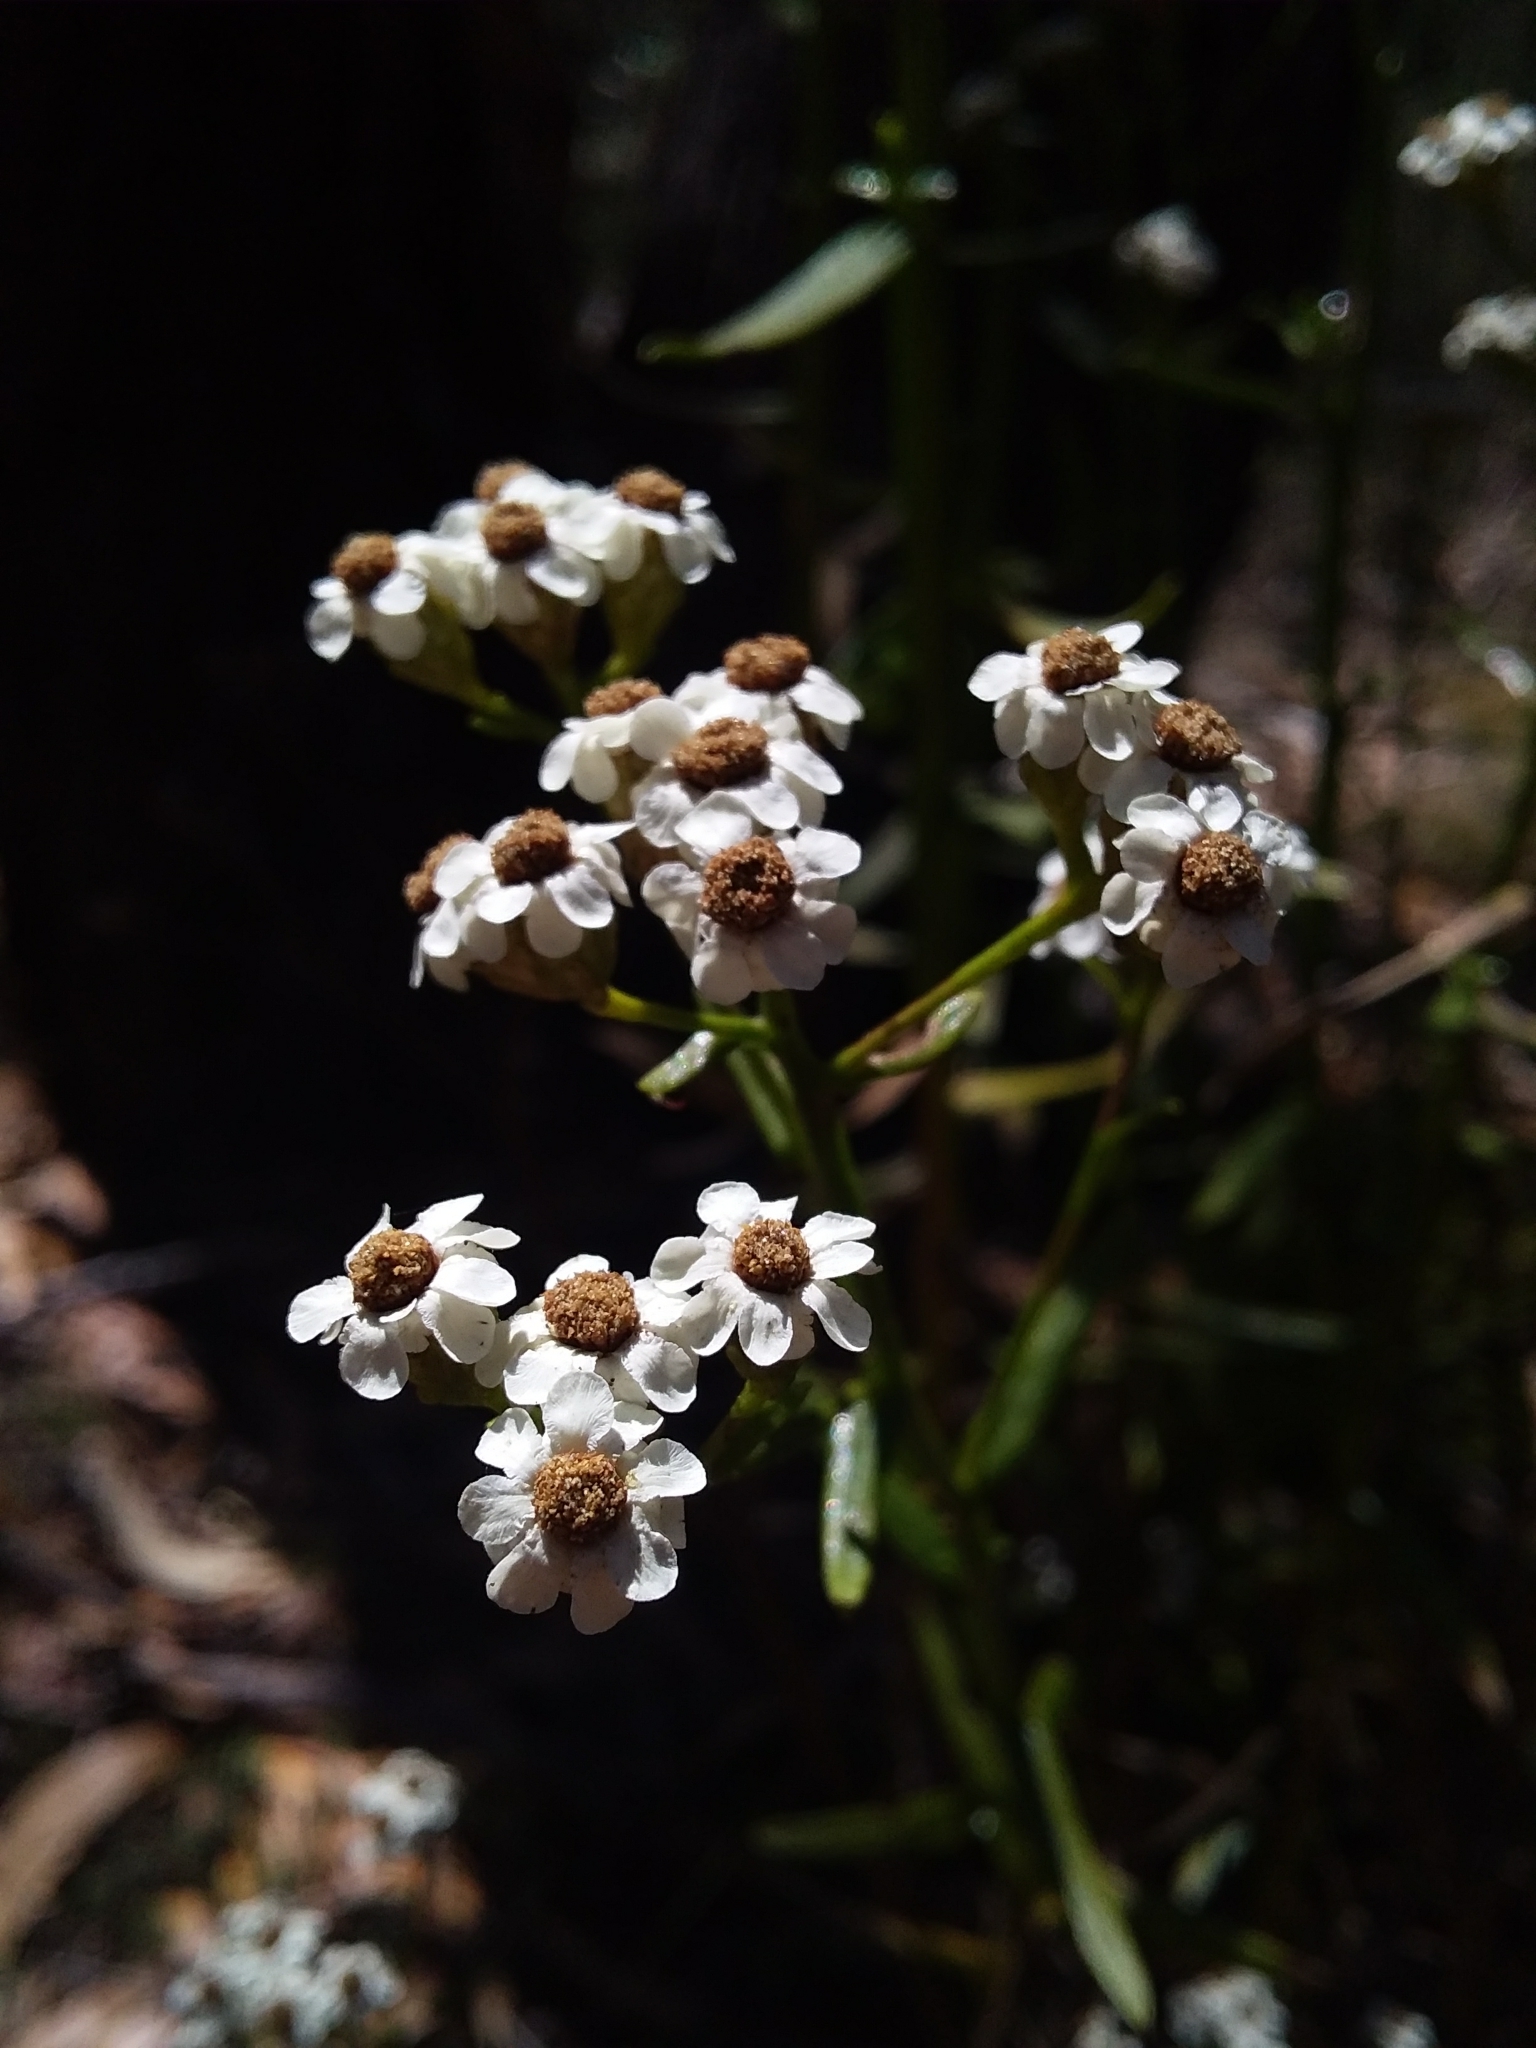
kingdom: Plantae
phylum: Tracheophyta
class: Magnoliopsida
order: Asterales
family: Asteraceae
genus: Ixodia
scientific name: Ixodia achillaeoides
